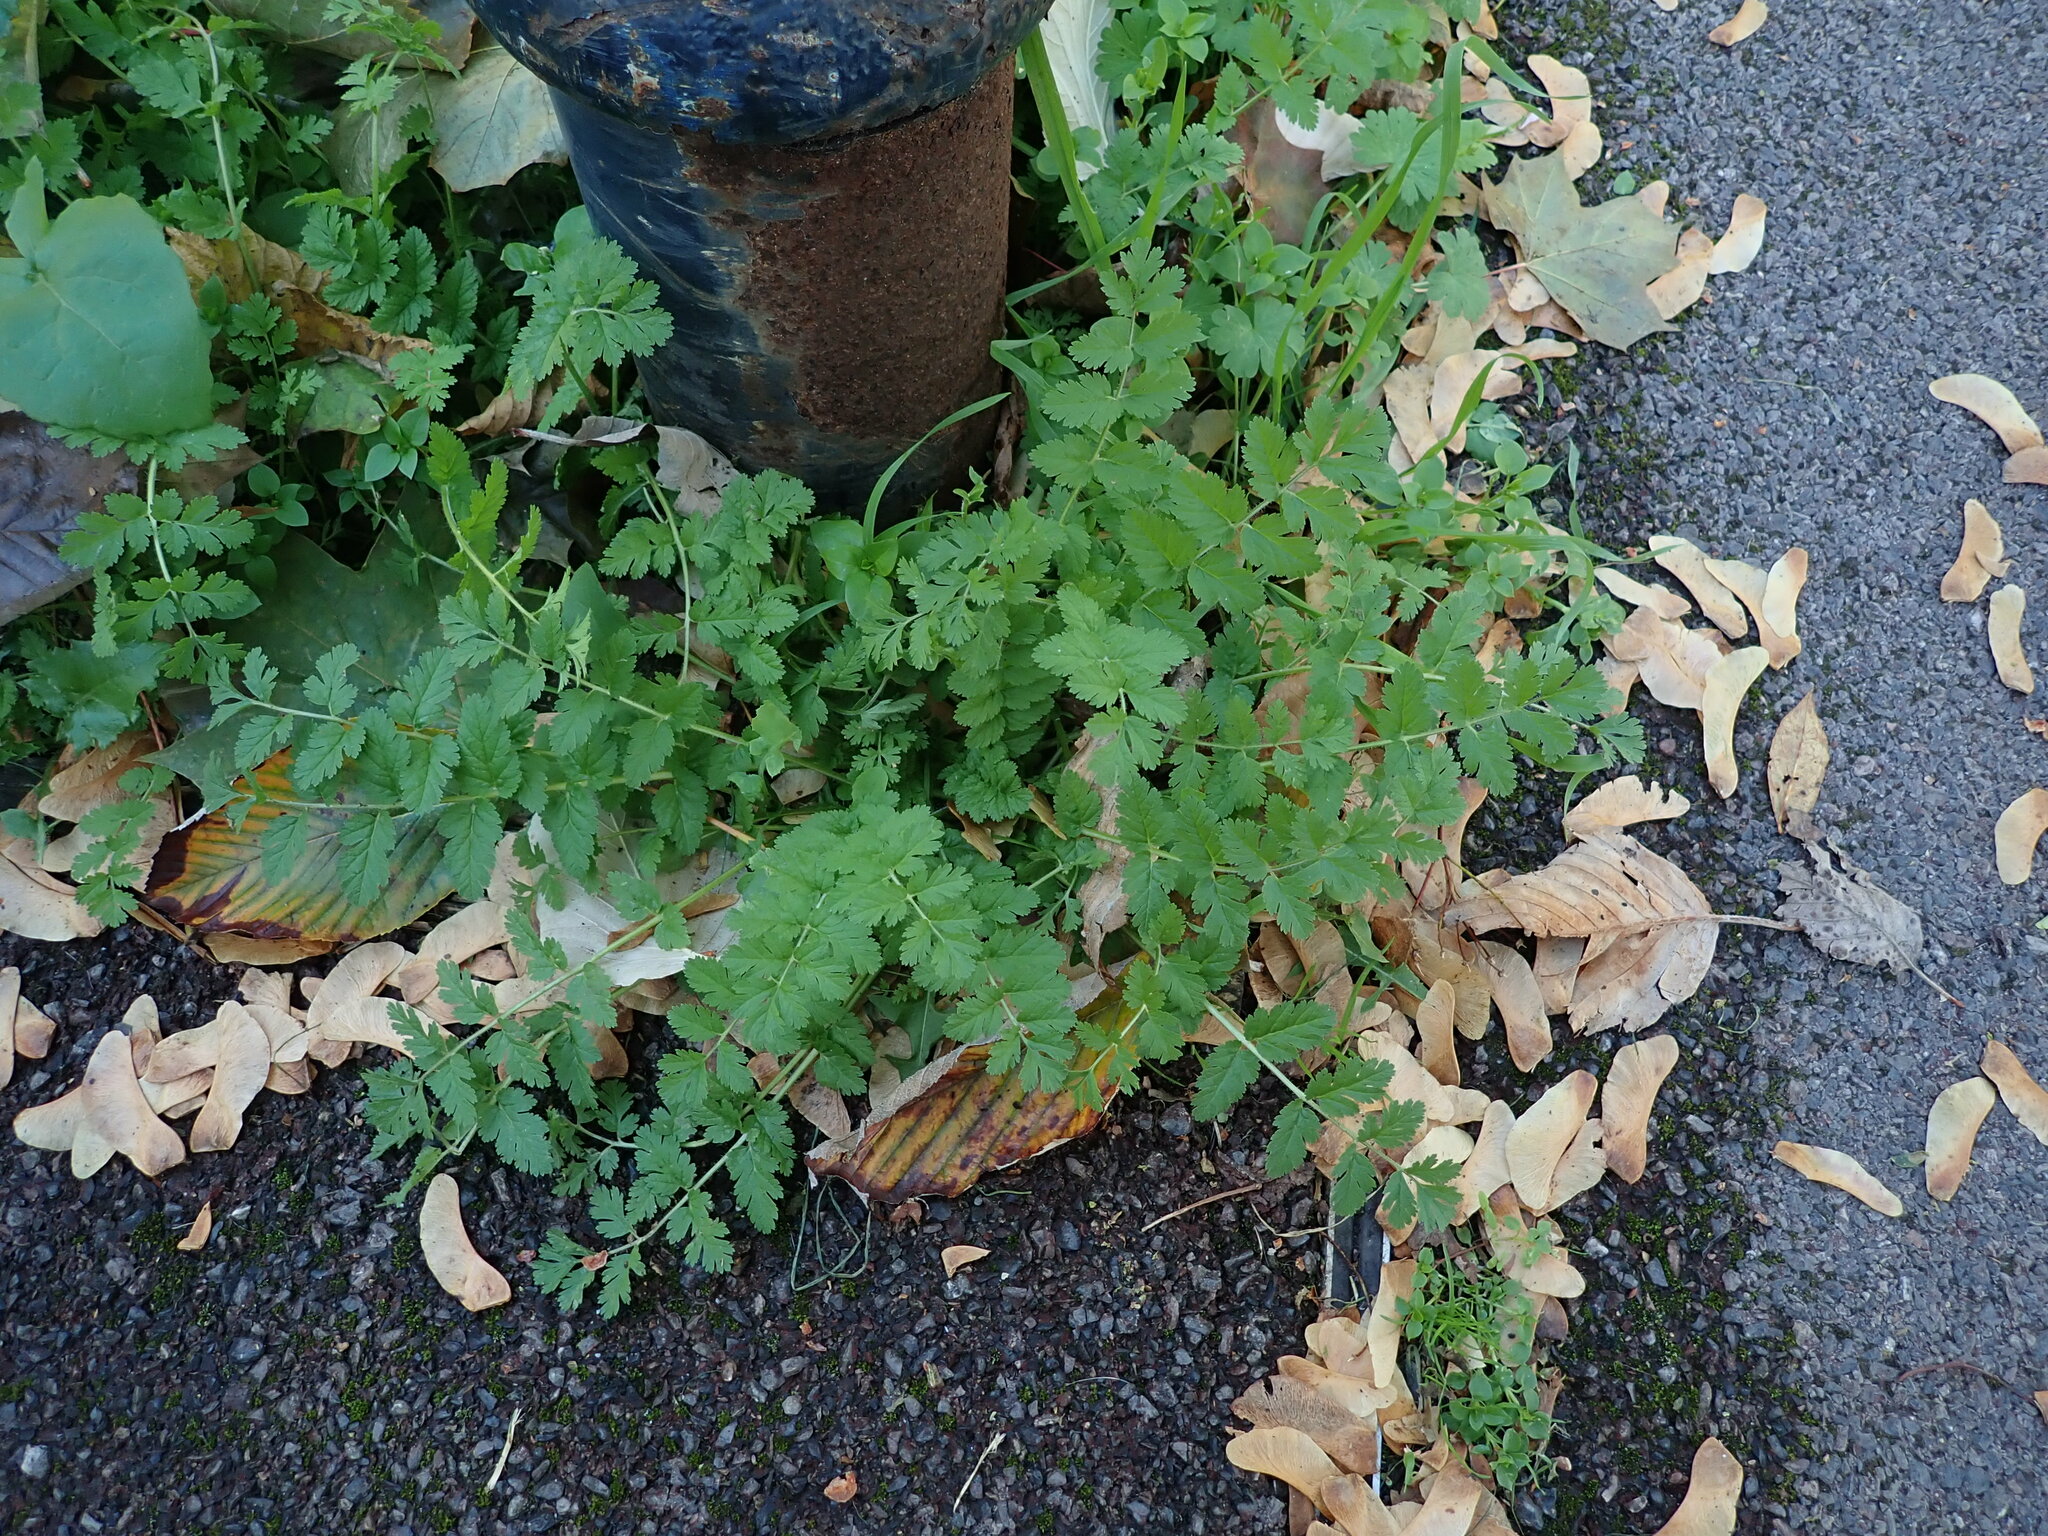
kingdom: Plantae
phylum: Tracheophyta
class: Magnoliopsida
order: Geraniales
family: Geraniaceae
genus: Erodium
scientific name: Erodium moschatum
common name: Musk stork's-bill
